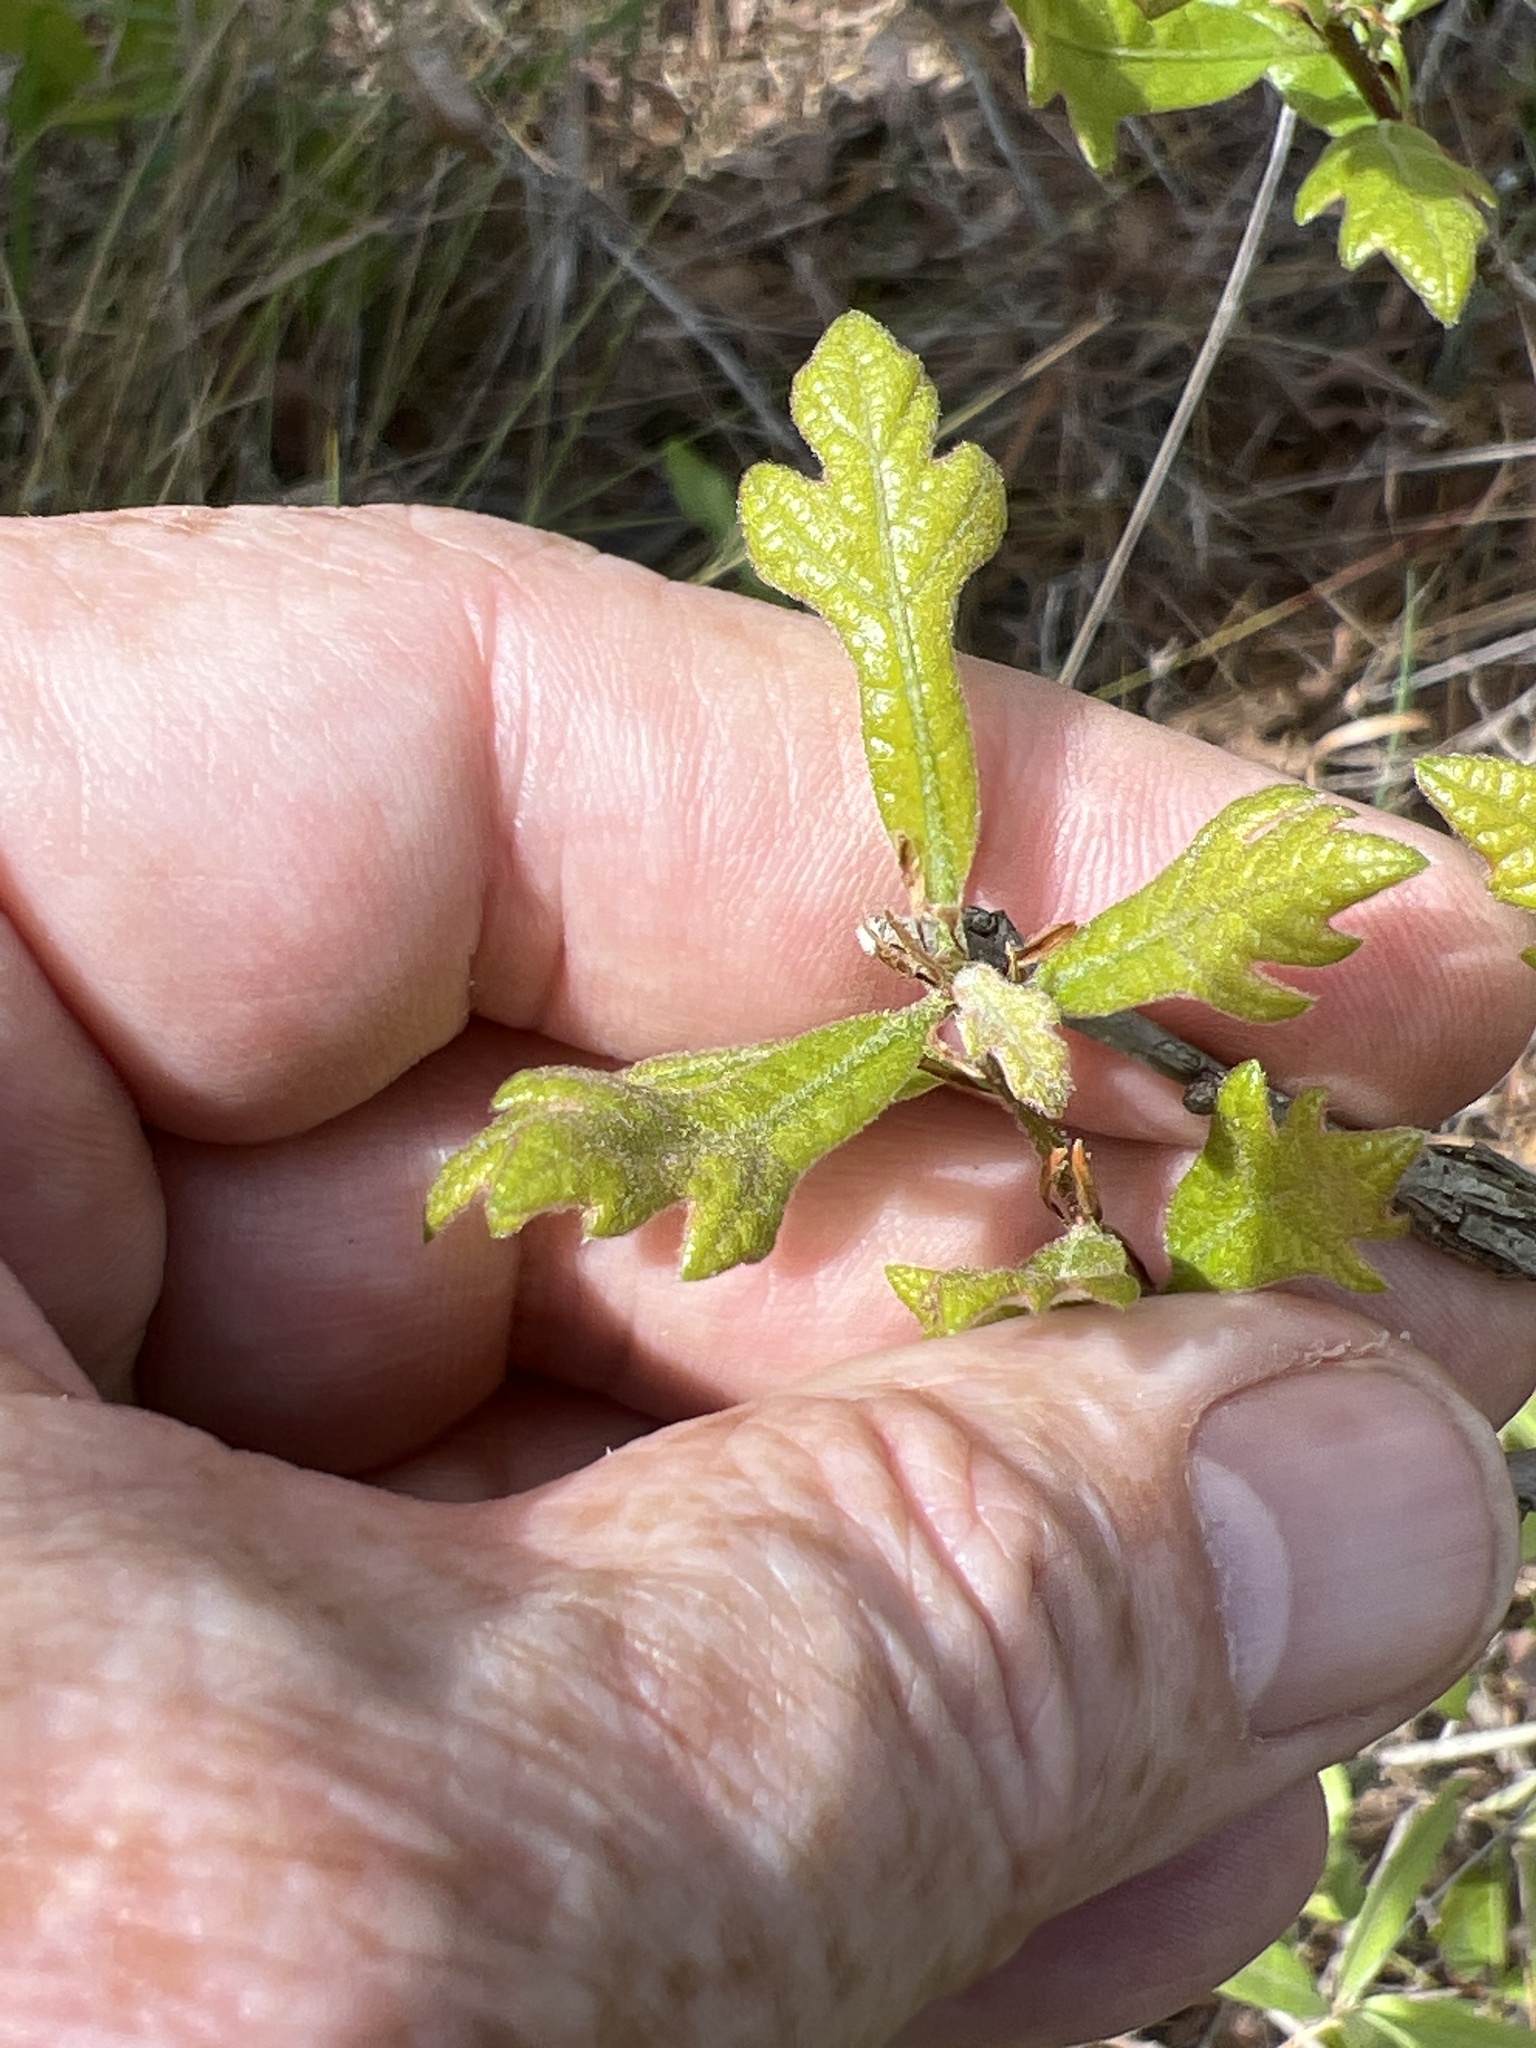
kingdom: Plantae
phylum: Tracheophyta
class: Magnoliopsida
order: Fagales
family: Fagaceae
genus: Quercus
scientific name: Quercus margaretiae
